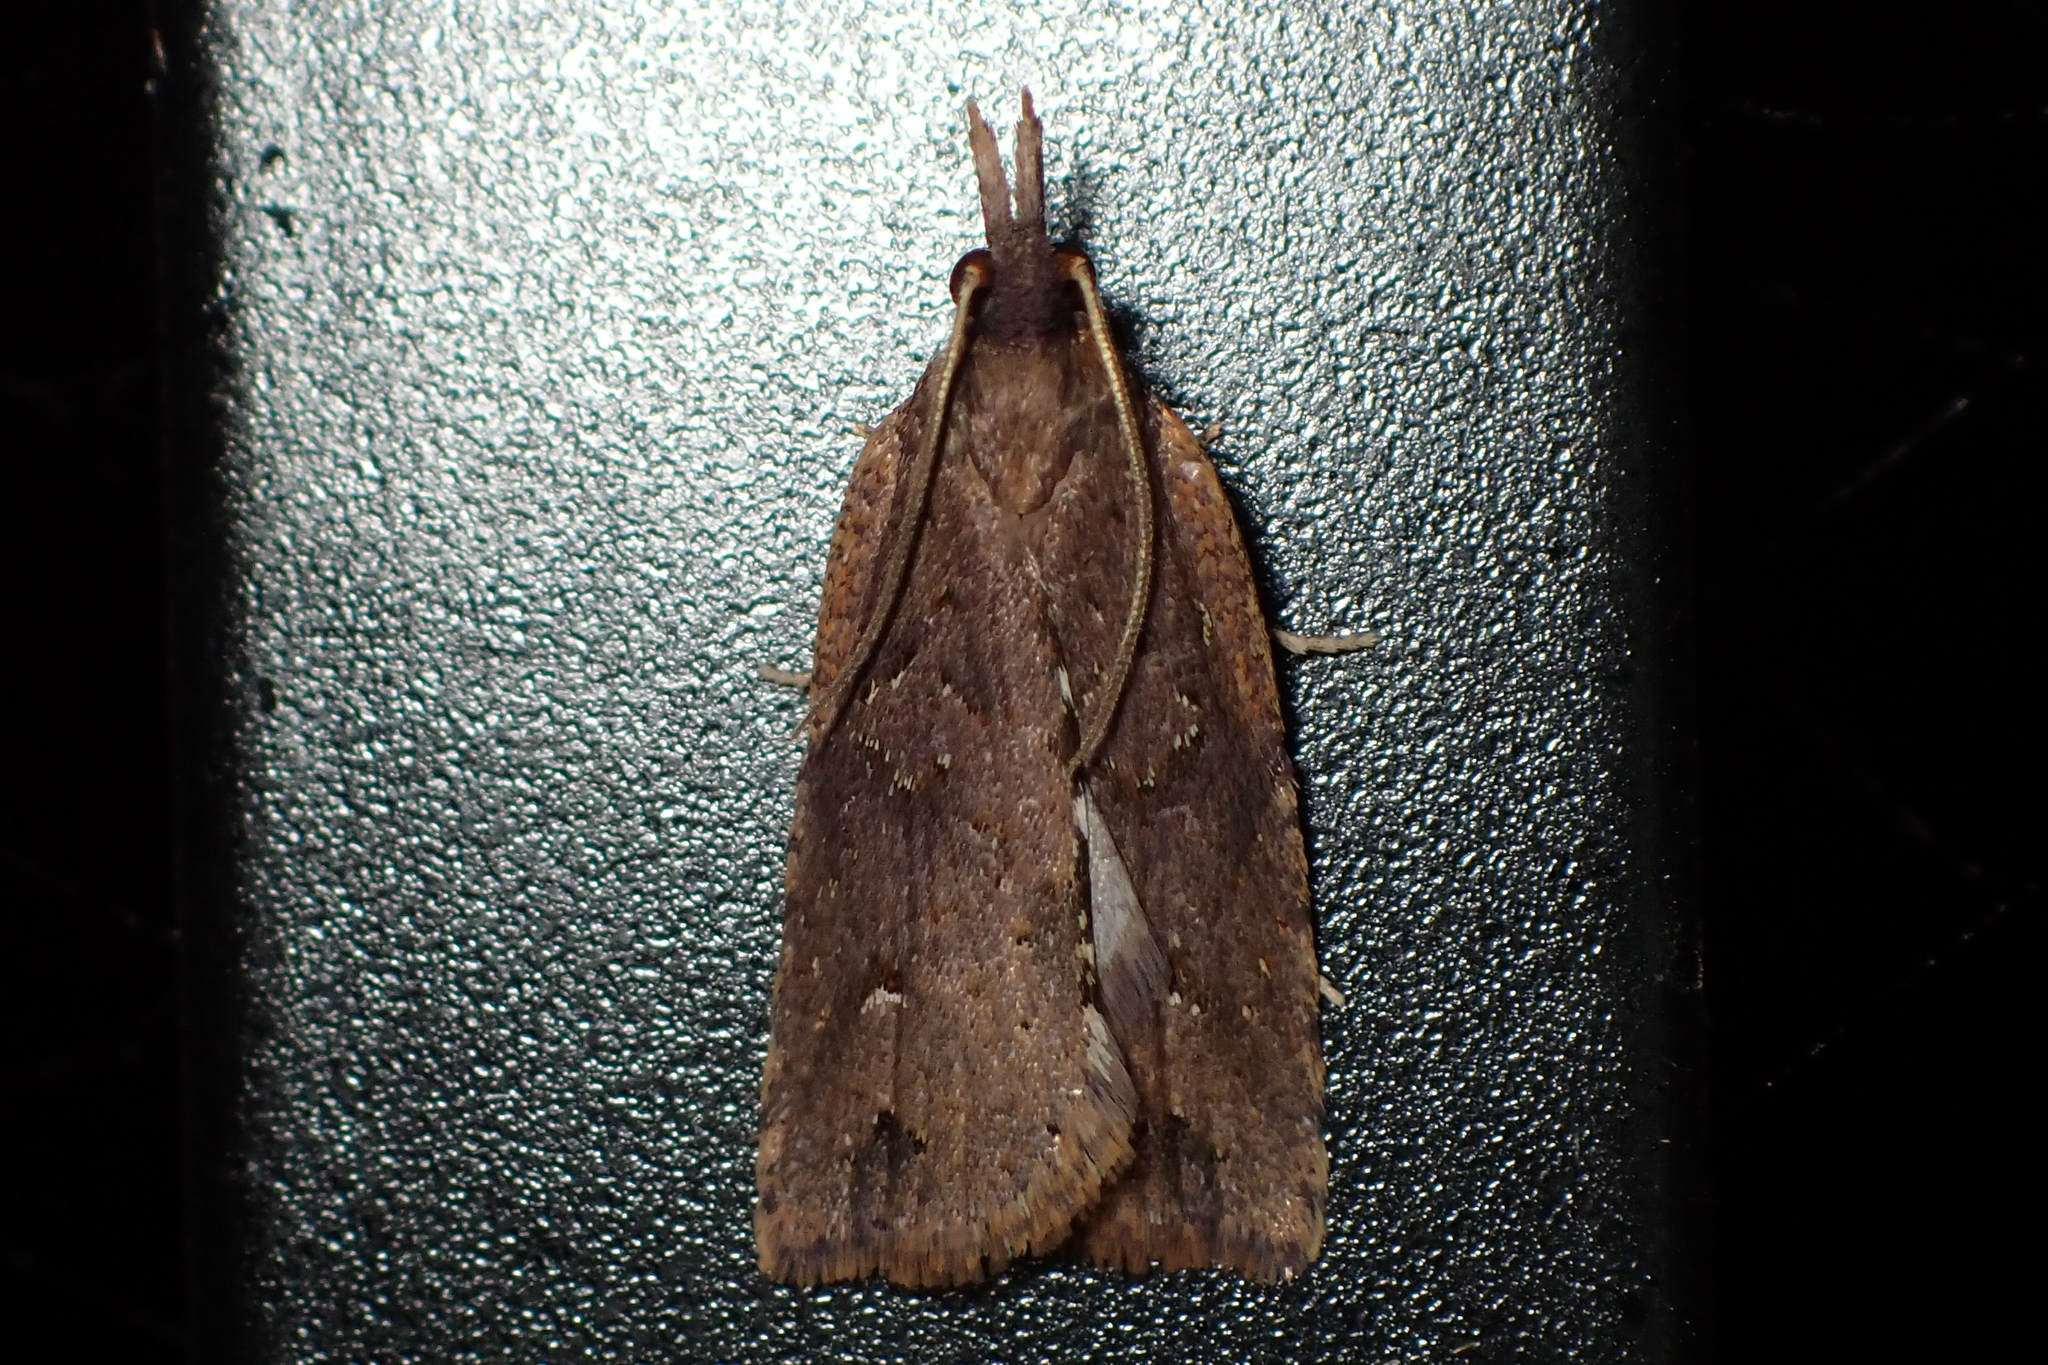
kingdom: Animalia
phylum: Arthropoda
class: Insecta
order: Lepidoptera
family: Tortricidae
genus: Planotortrix
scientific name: Planotortrix notophaea
